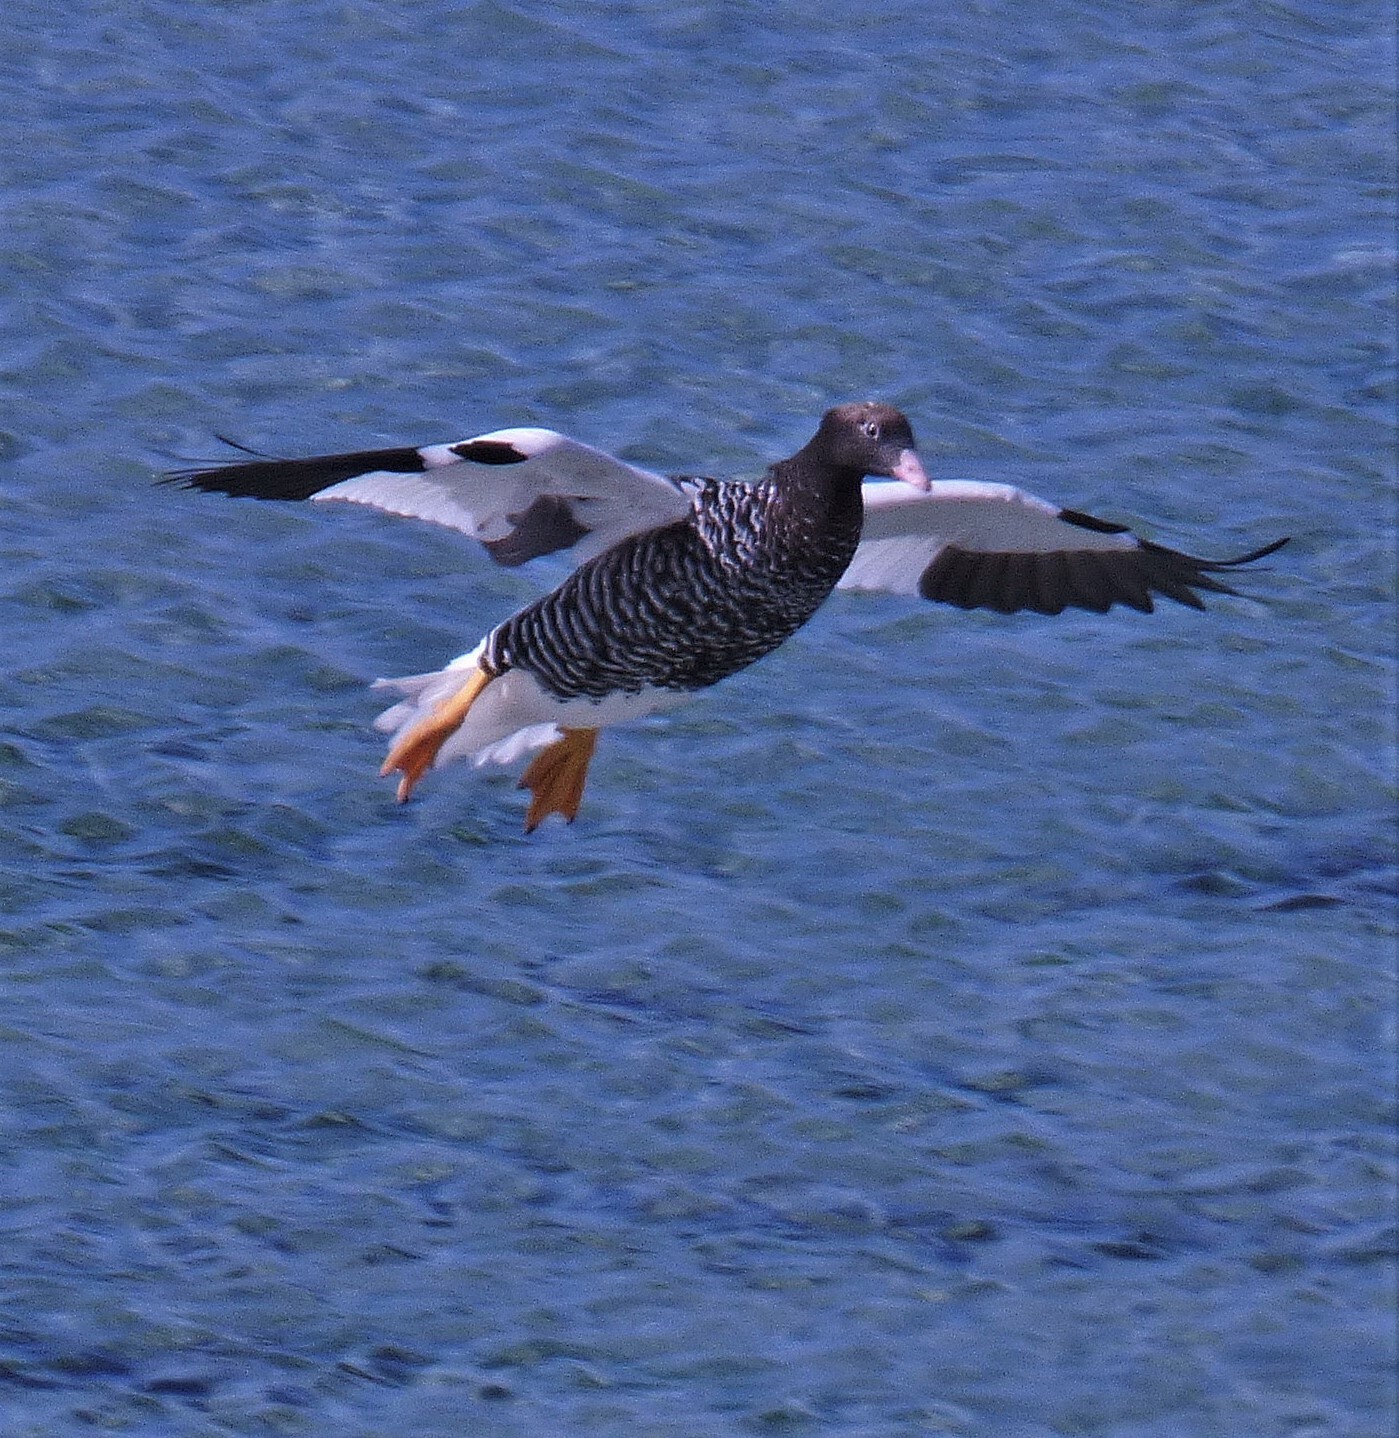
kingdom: Animalia
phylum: Chordata
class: Aves
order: Anseriformes
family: Anatidae
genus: Chloephaga
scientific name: Chloephaga hybrida
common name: Kelp goose
